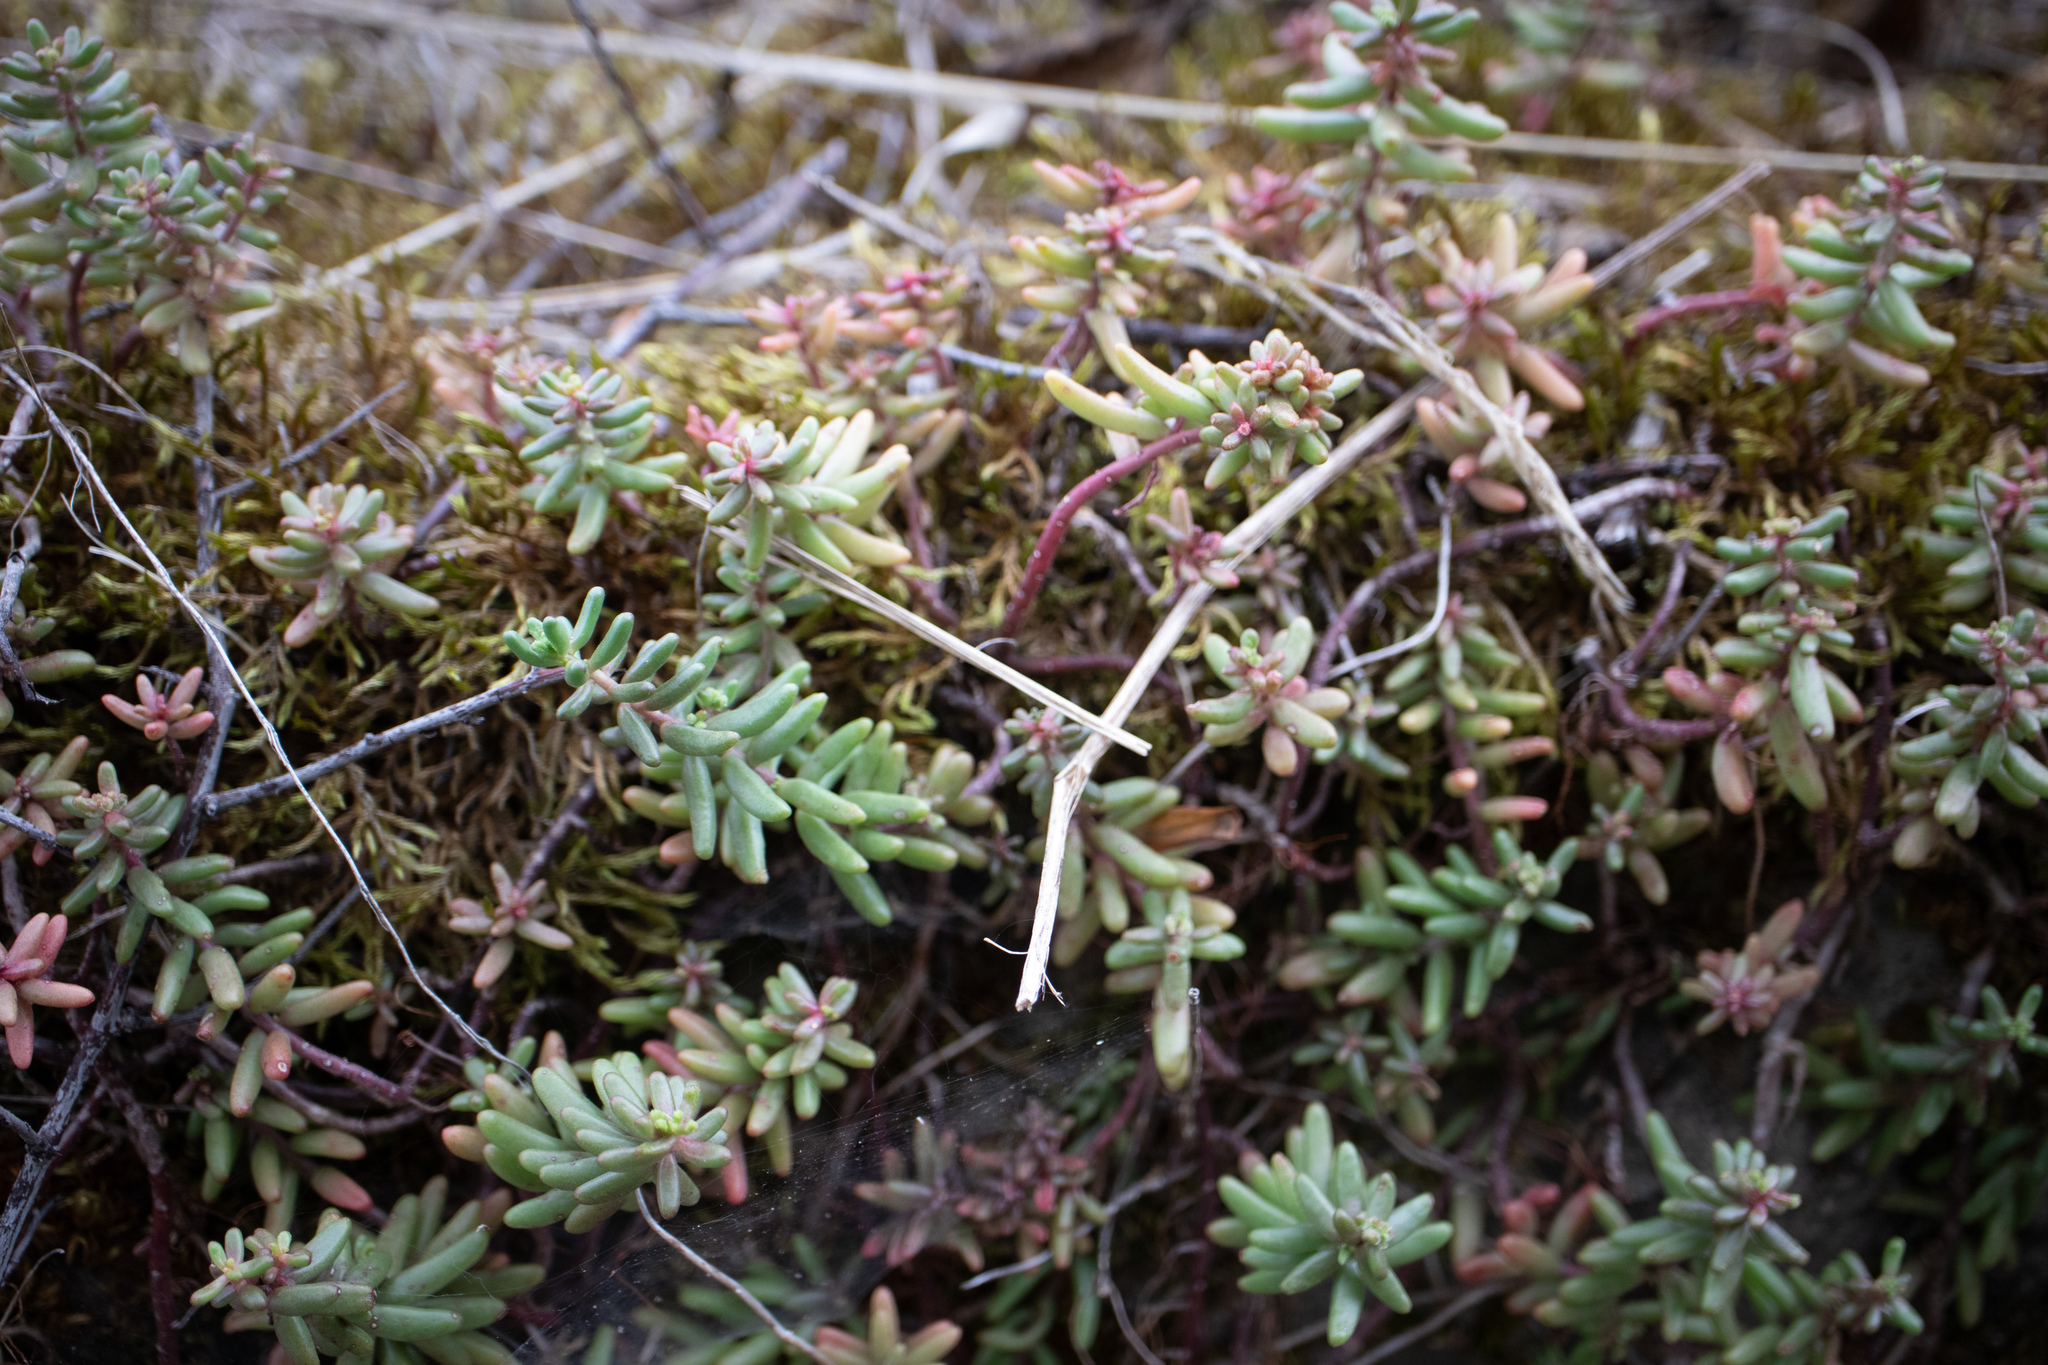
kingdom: Plantae
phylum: Tracheophyta
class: Magnoliopsida
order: Saxifragales
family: Crassulaceae
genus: Sedum
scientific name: Sedum album
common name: White stonecrop
